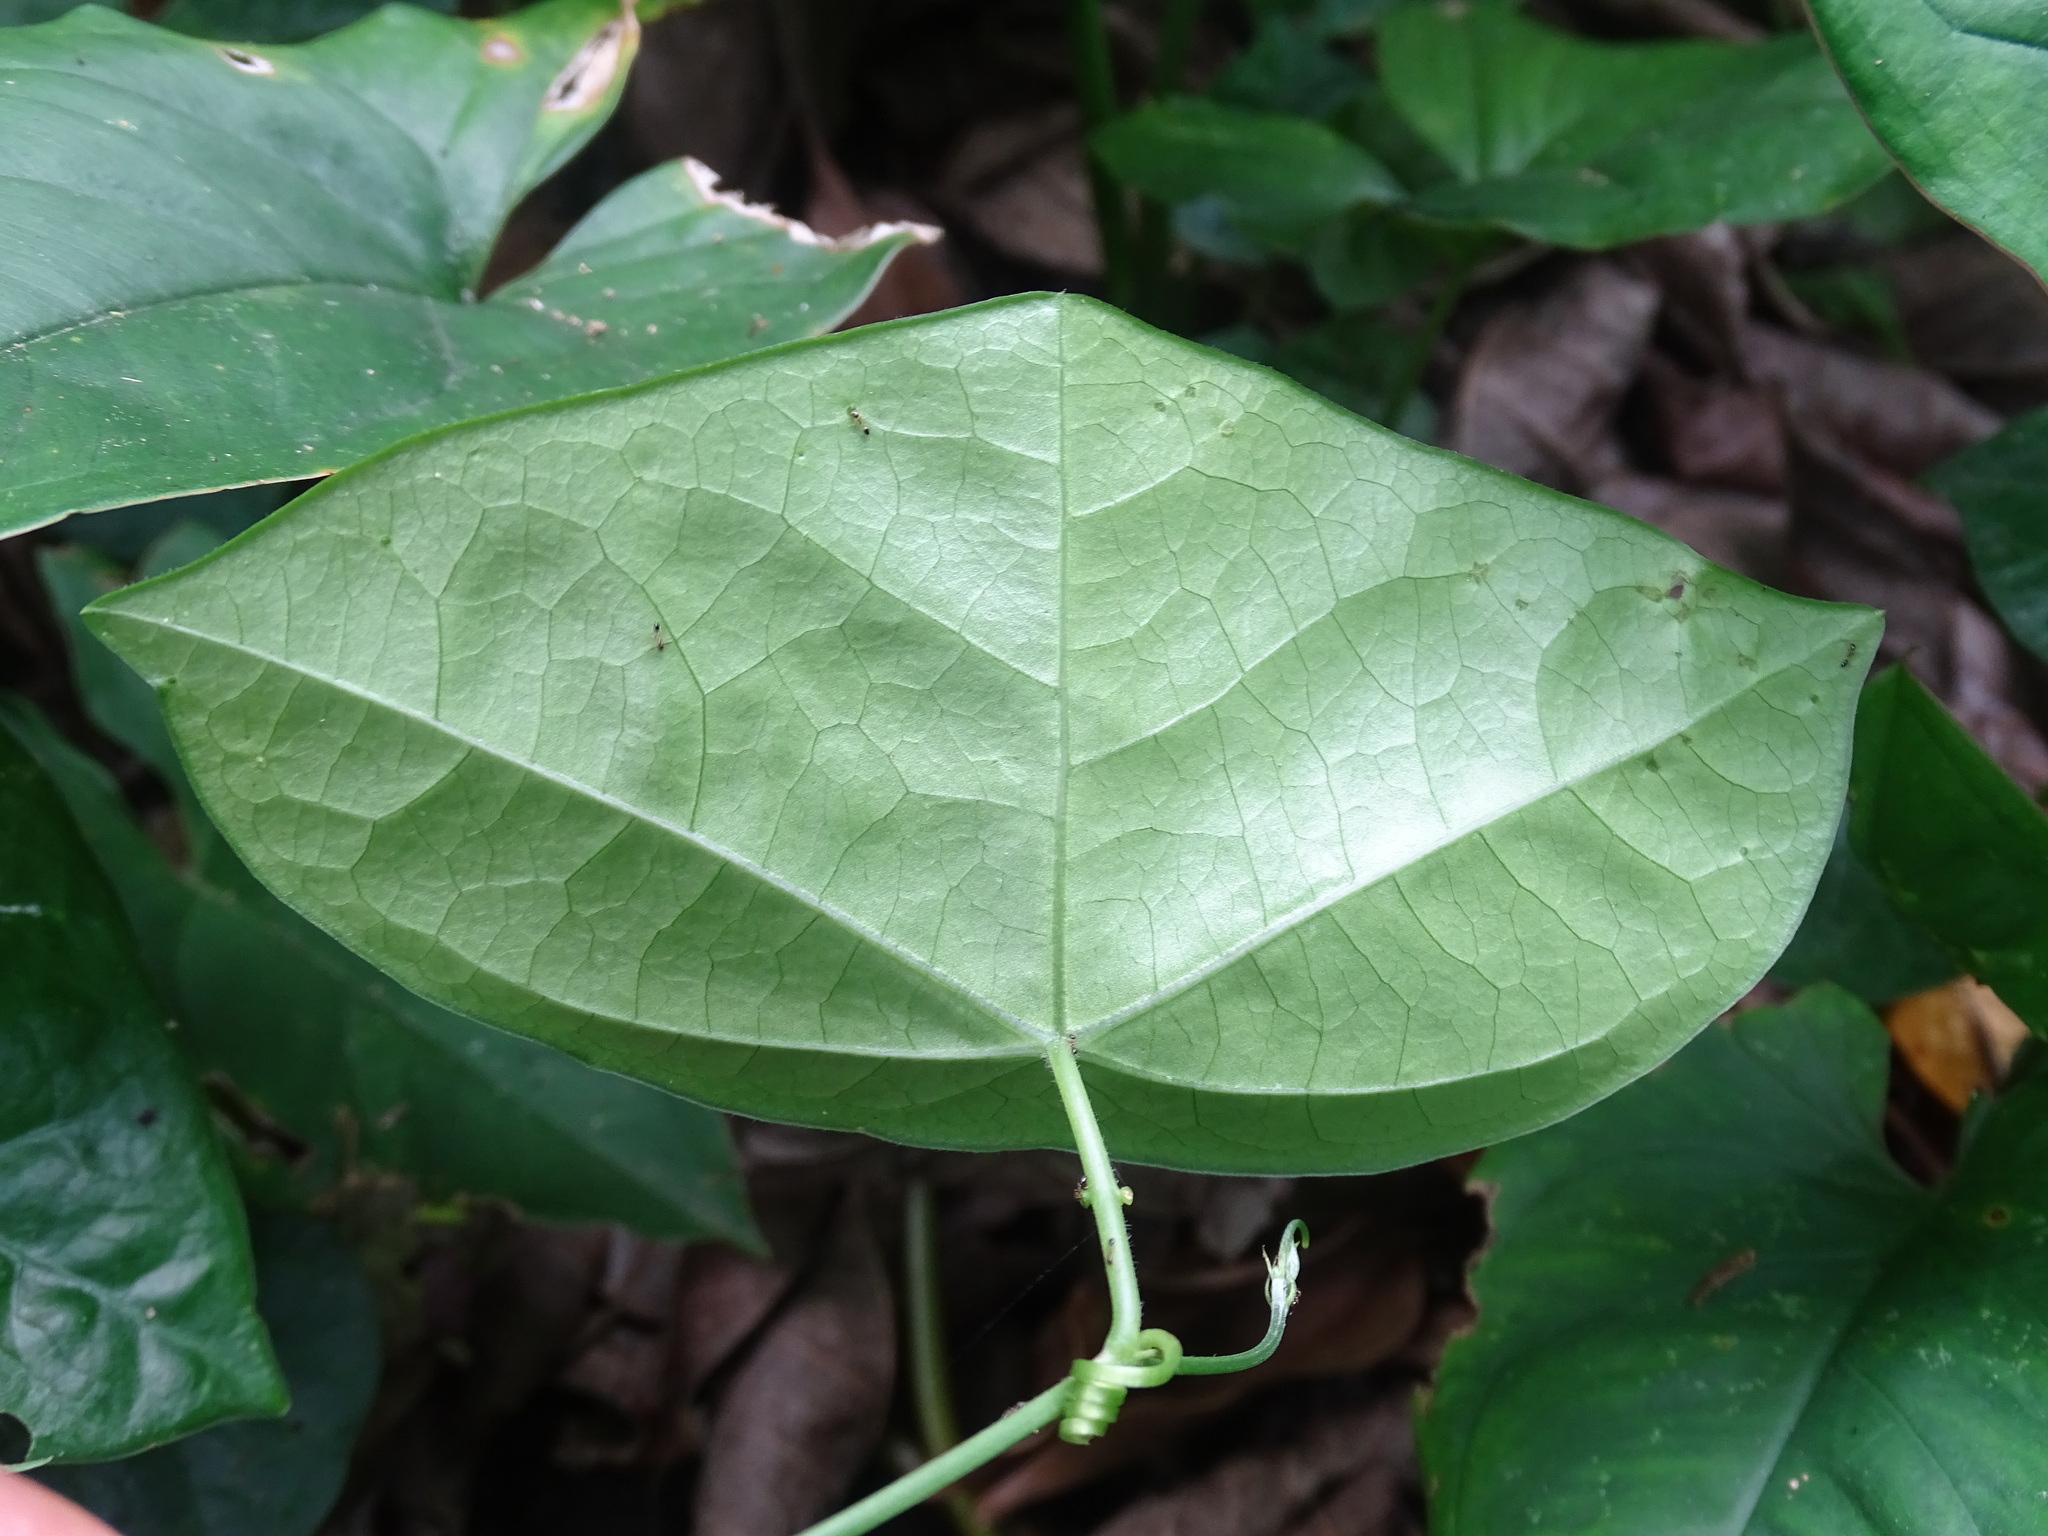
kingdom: Plantae
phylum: Tracheophyta
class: Magnoliopsida
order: Malpighiales
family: Passifloraceae
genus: Passiflora
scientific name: Passiflora sexocellata
